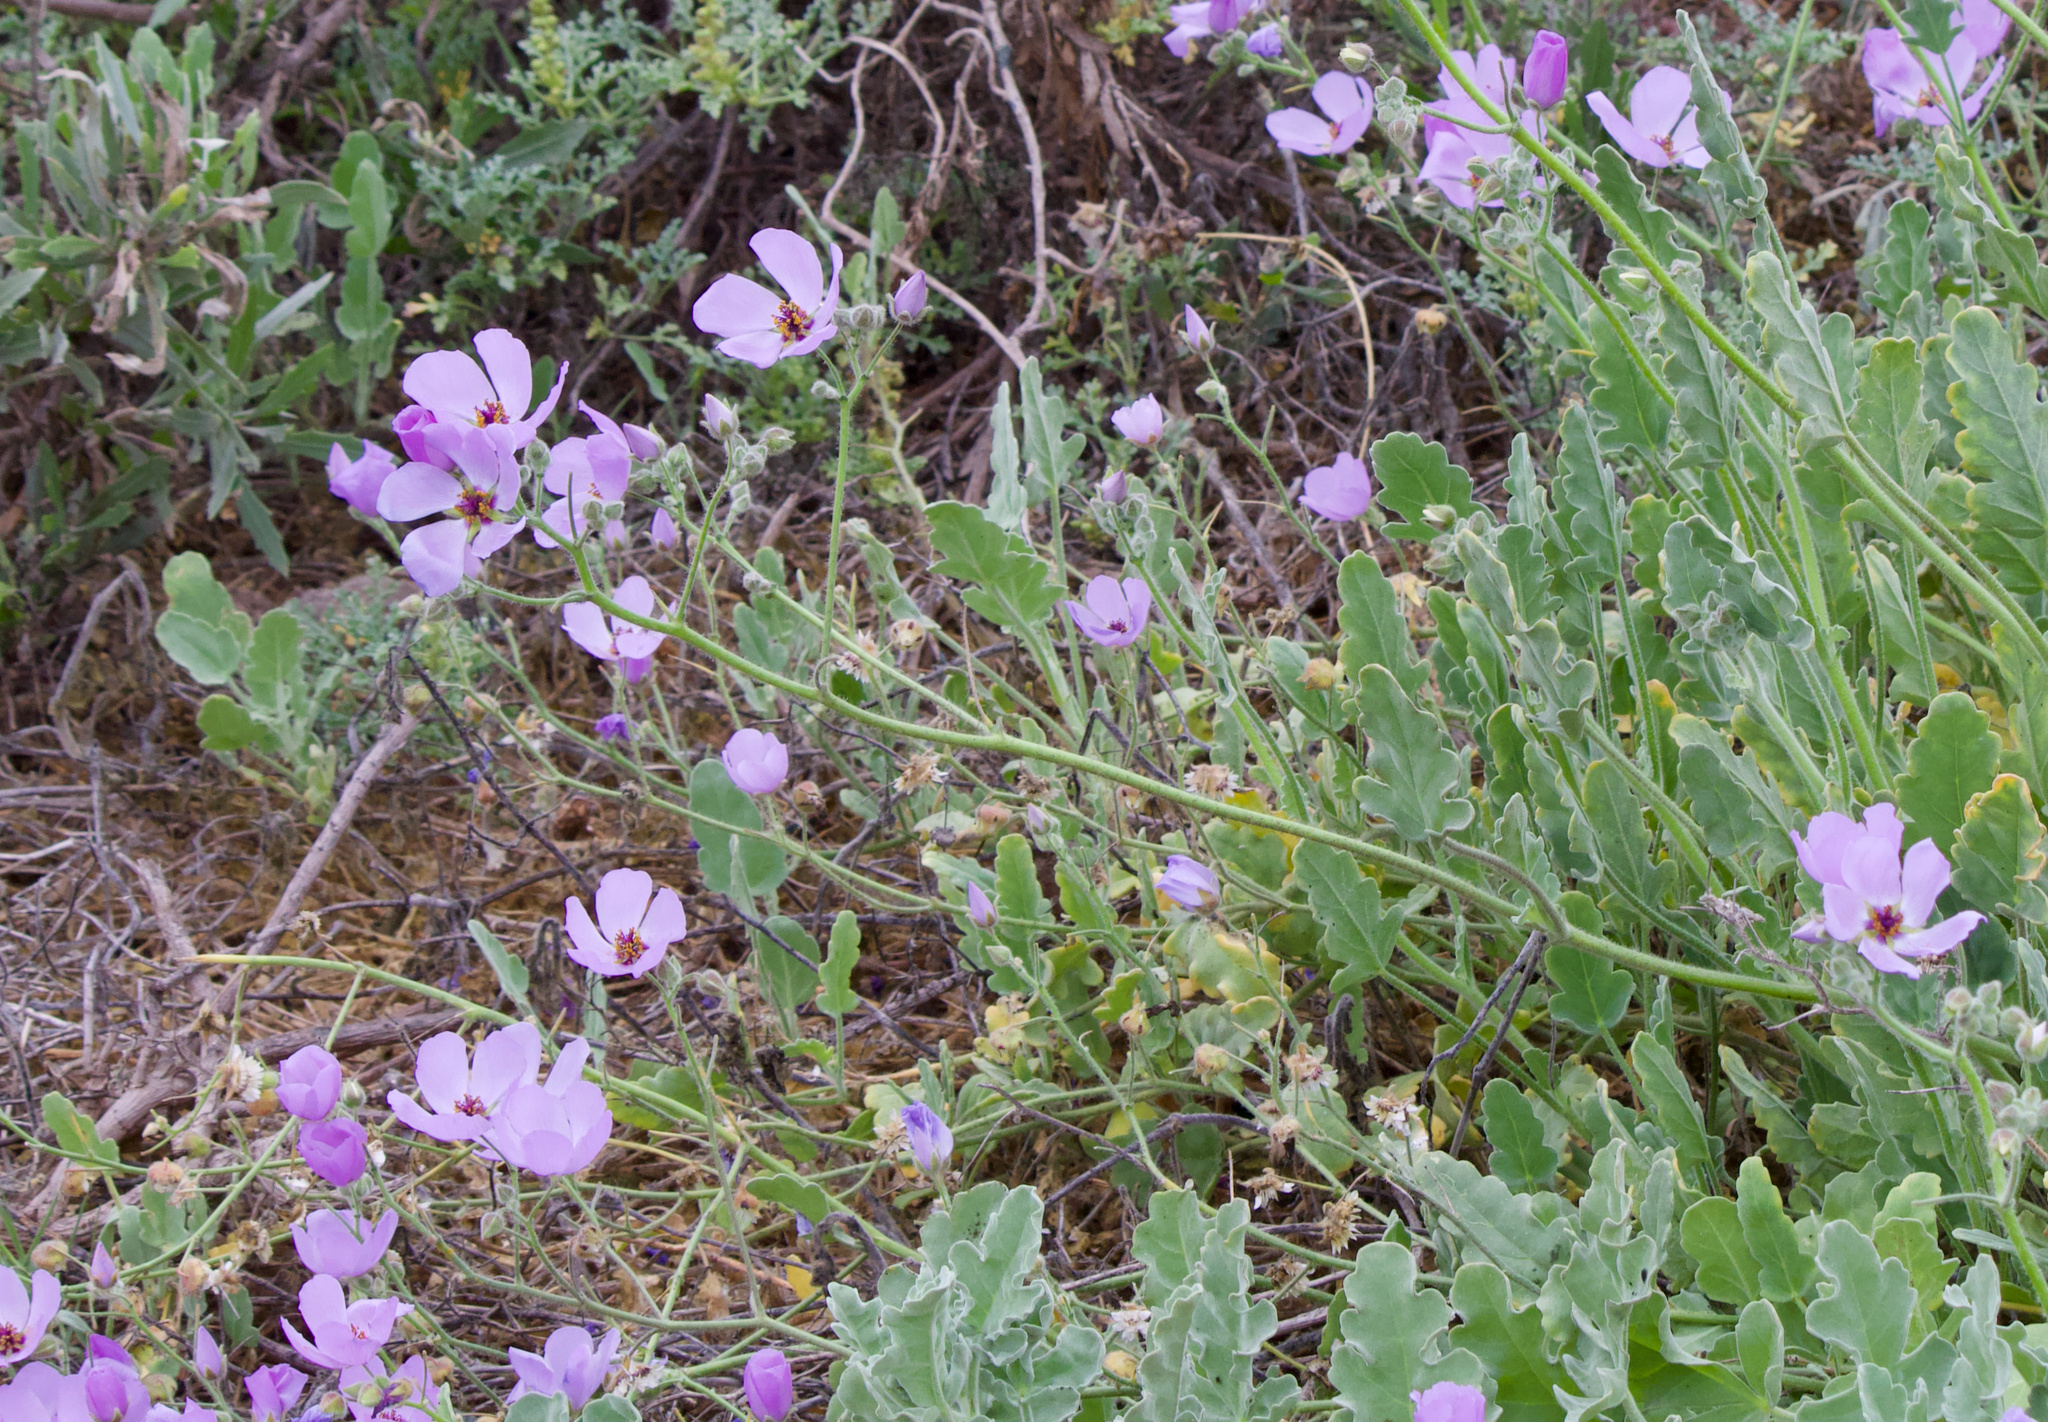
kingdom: Plantae
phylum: Tracheophyta
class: Magnoliopsida
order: Malvales
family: Malvaceae
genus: Cristaria
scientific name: Cristaria glaucophylla
